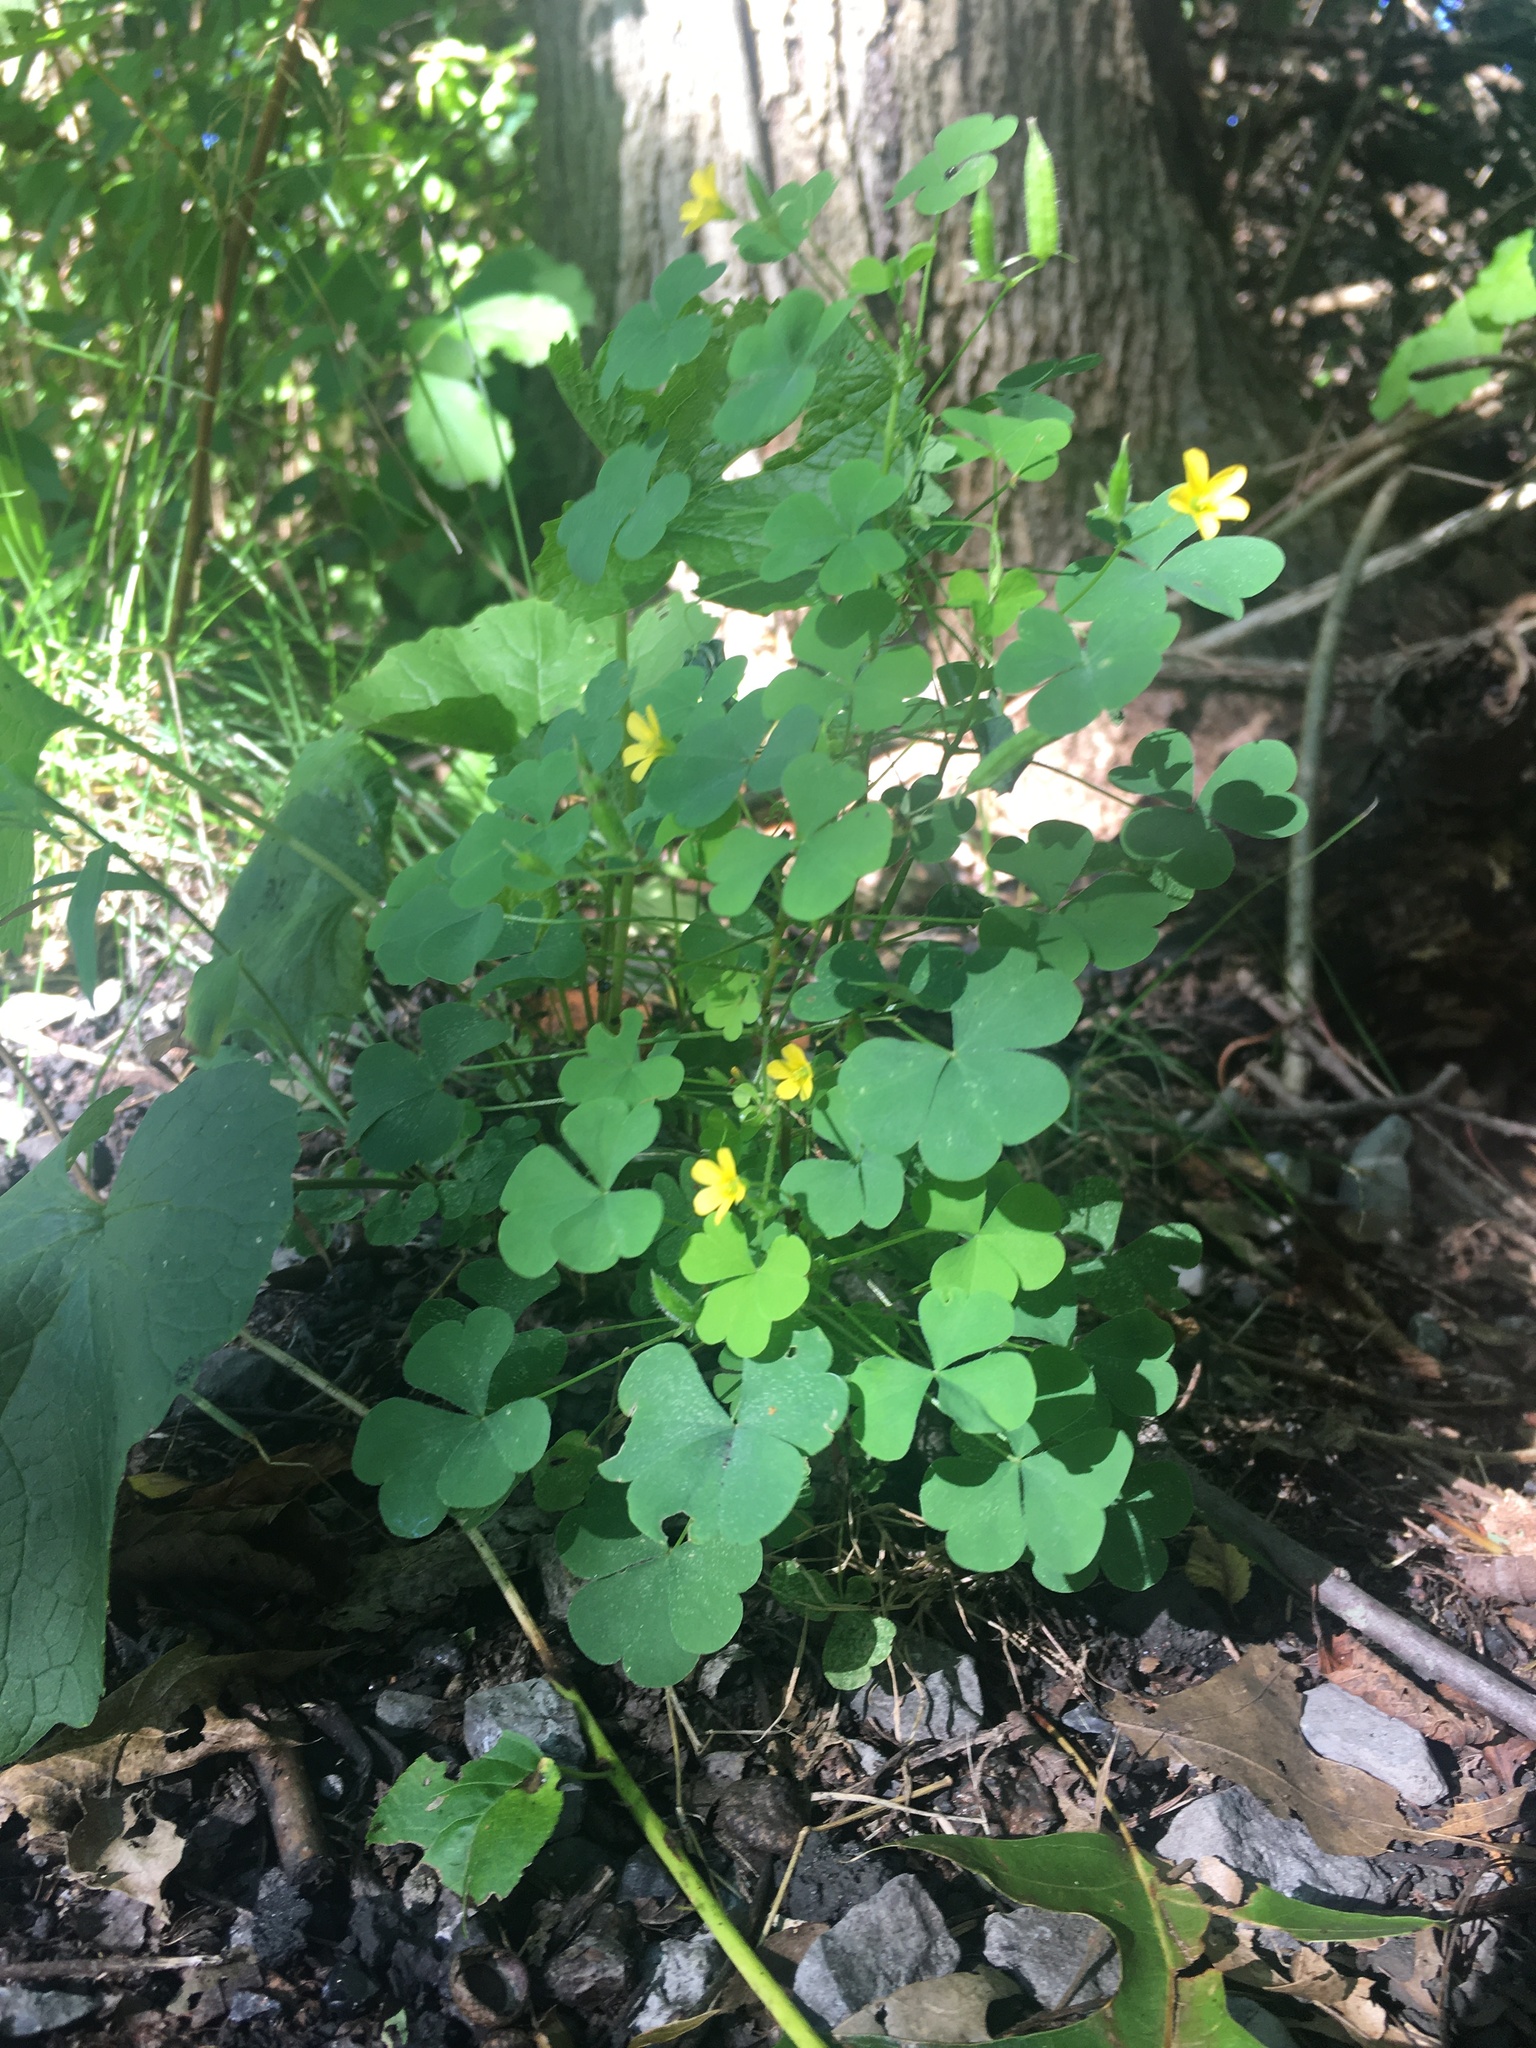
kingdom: Plantae
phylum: Tracheophyta
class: Magnoliopsida
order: Oxalidales
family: Oxalidaceae
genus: Oxalis
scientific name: Oxalis stricta
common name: Upright yellow-sorrel
